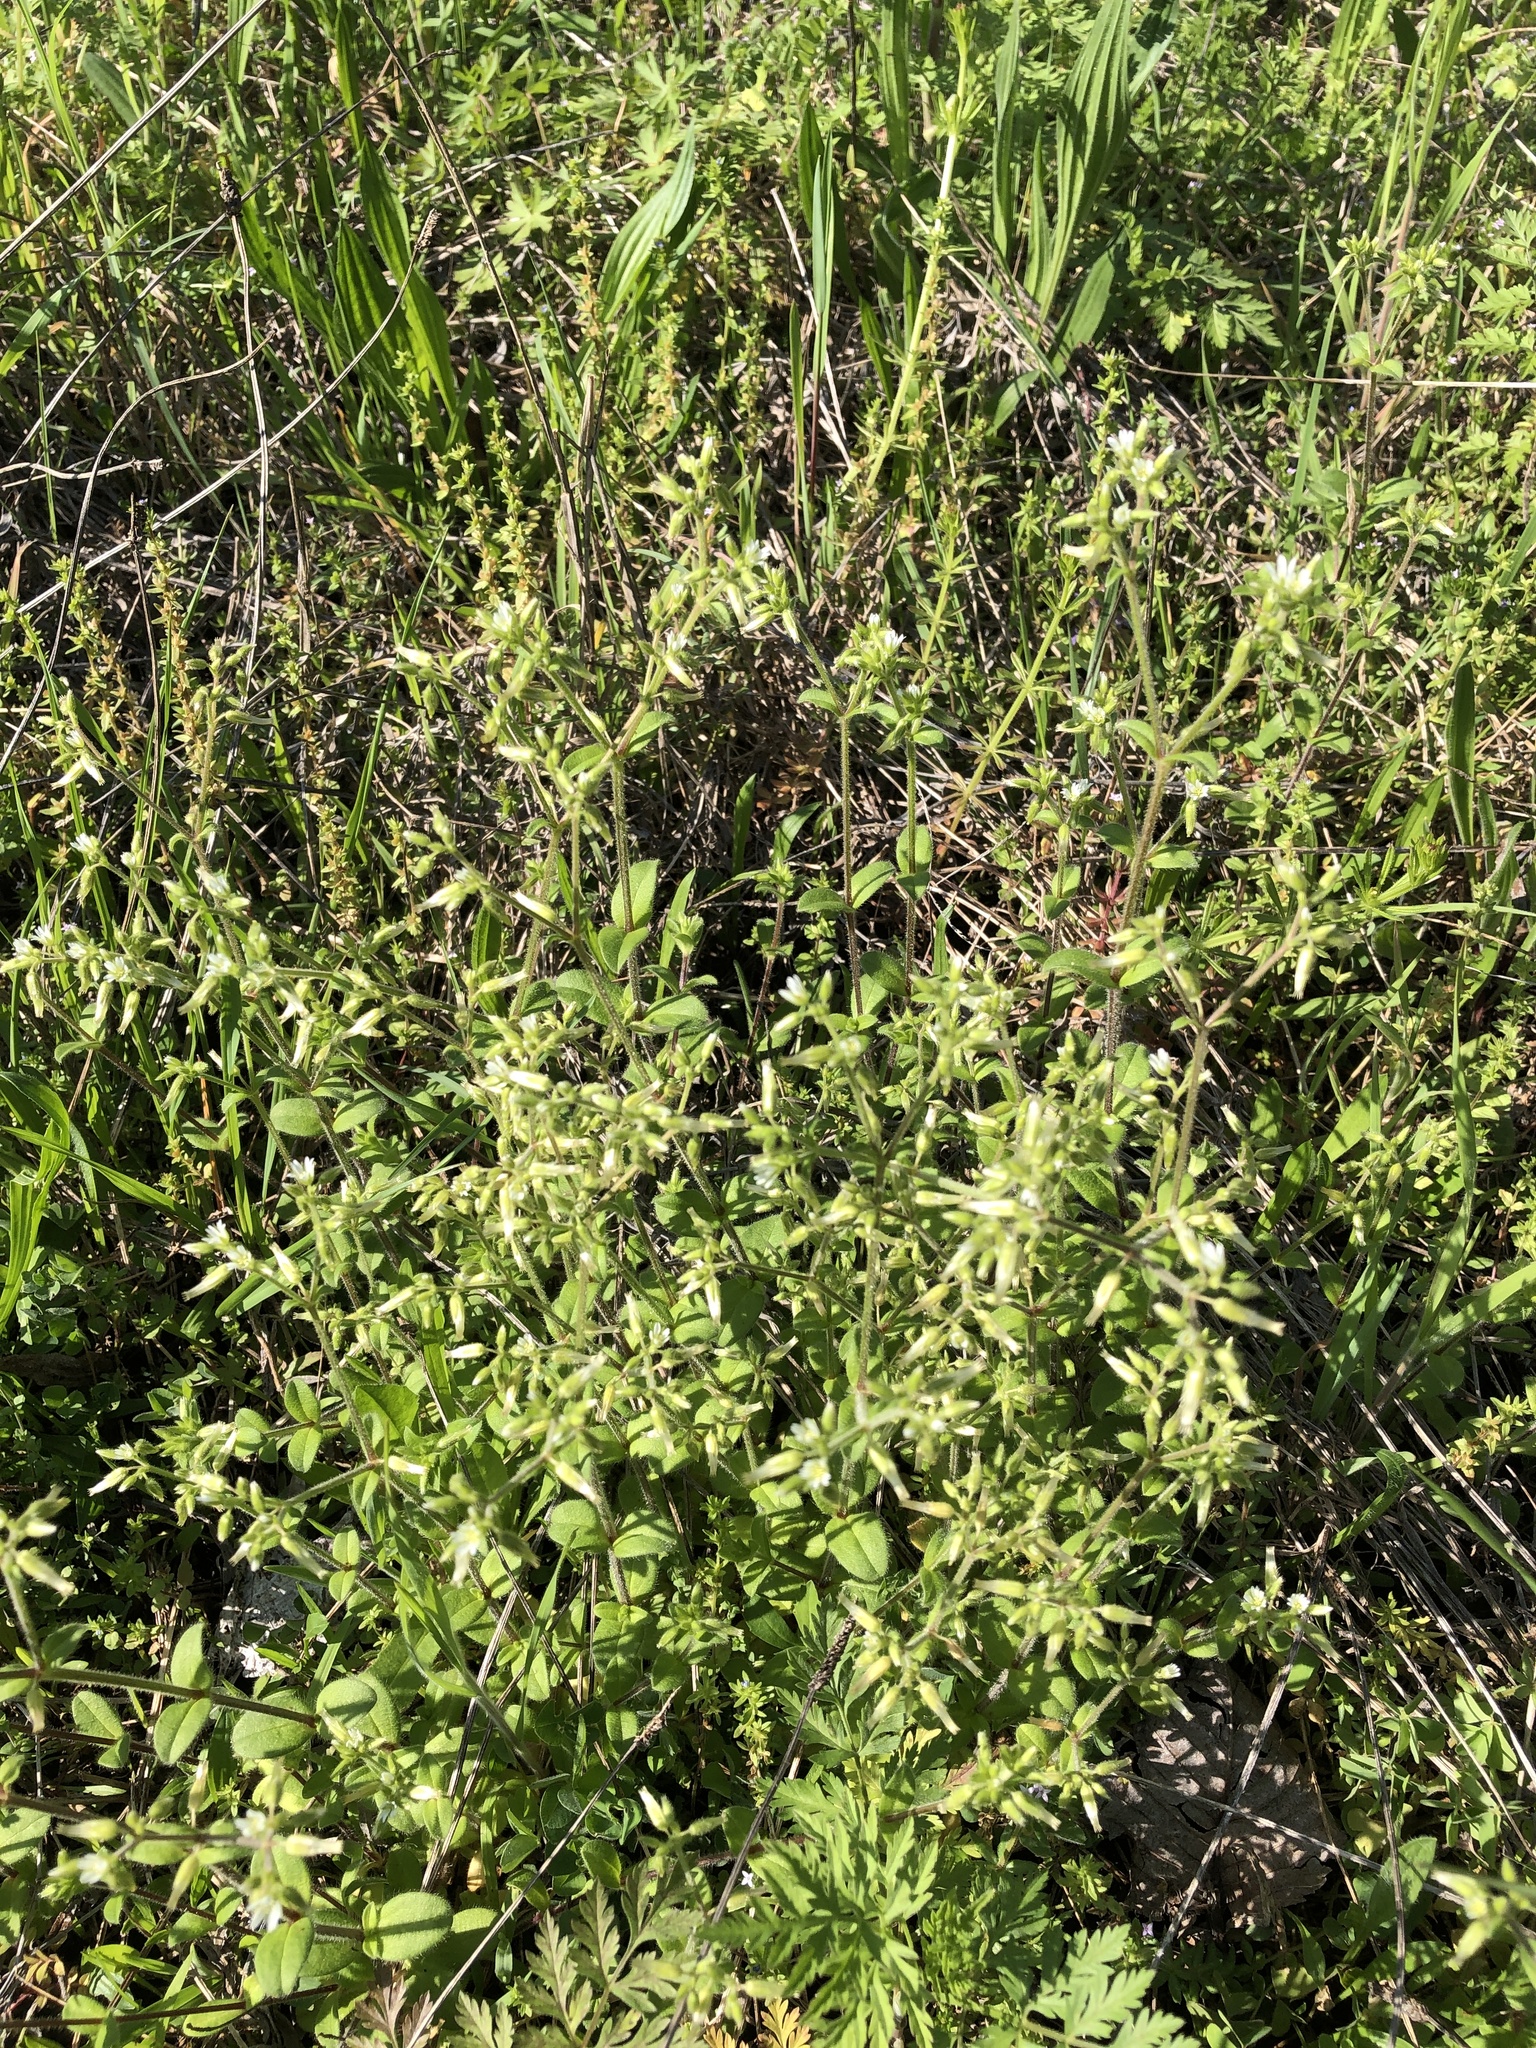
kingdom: Plantae
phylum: Tracheophyta
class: Magnoliopsida
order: Caryophyllales
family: Caryophyllaceae
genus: Cerastium
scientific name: Cerastium glomeratum
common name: Sticky chickweed
